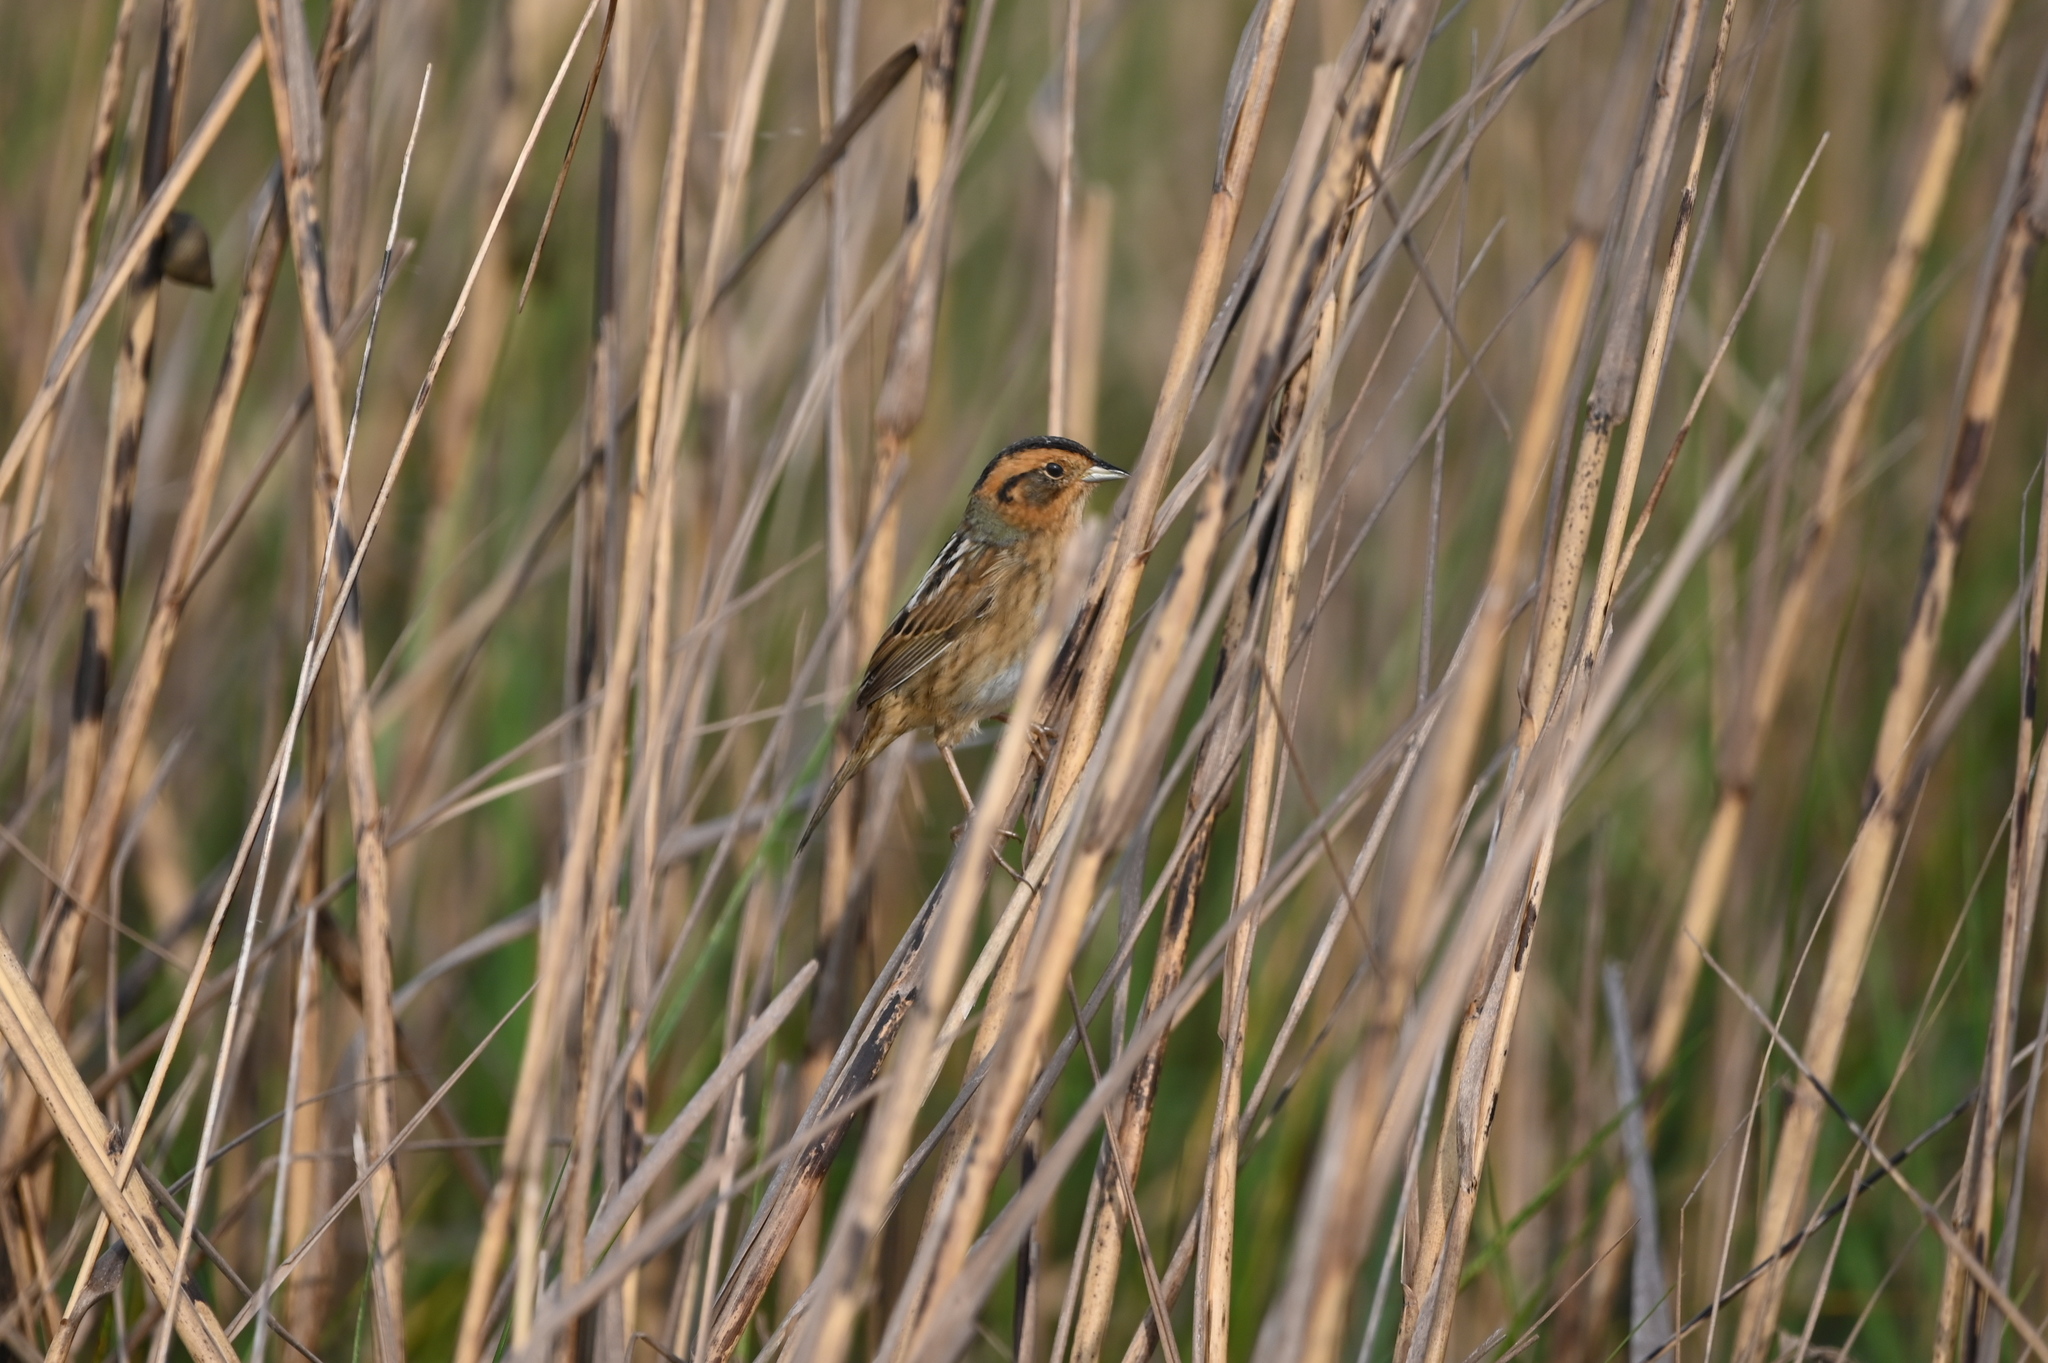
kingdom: Animalia
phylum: Chordata
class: Aves
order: Passeriformes
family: Passerellidae
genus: Ammospiza
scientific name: Ammospiza nelsoni
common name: Nelson's sparrow
